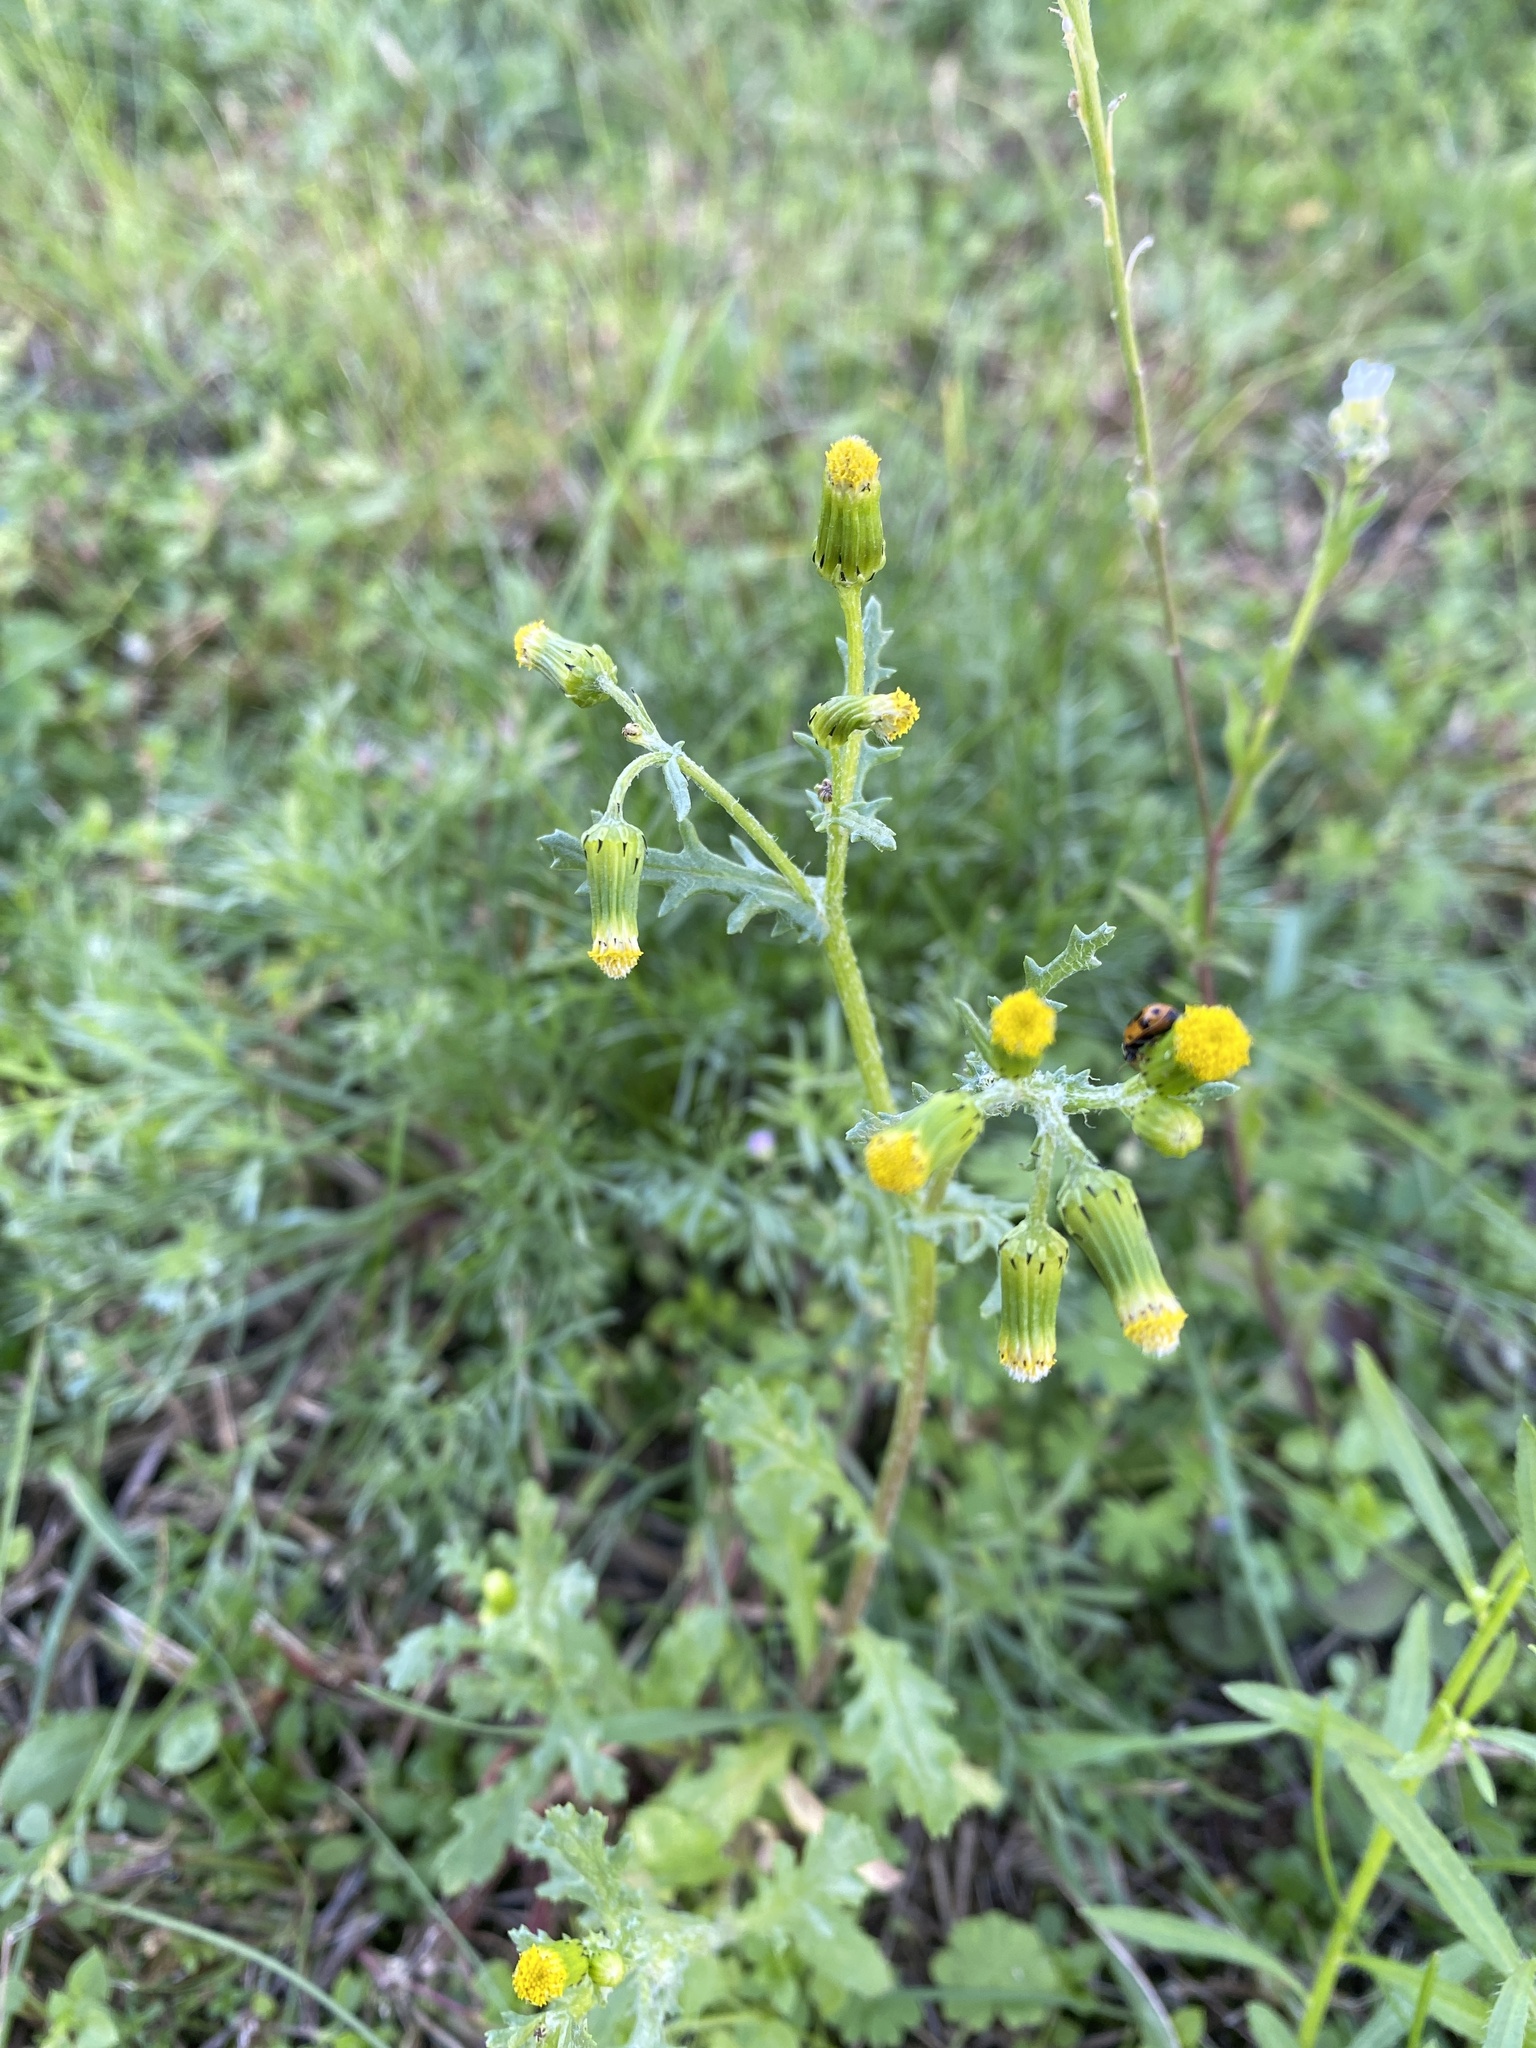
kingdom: Plantae
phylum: Tracheophyta
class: Magnoliopsida
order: Asterales
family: Asteraceae
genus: Senecio
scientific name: Senecio vulgaris
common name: Old-man-in-the-spring
